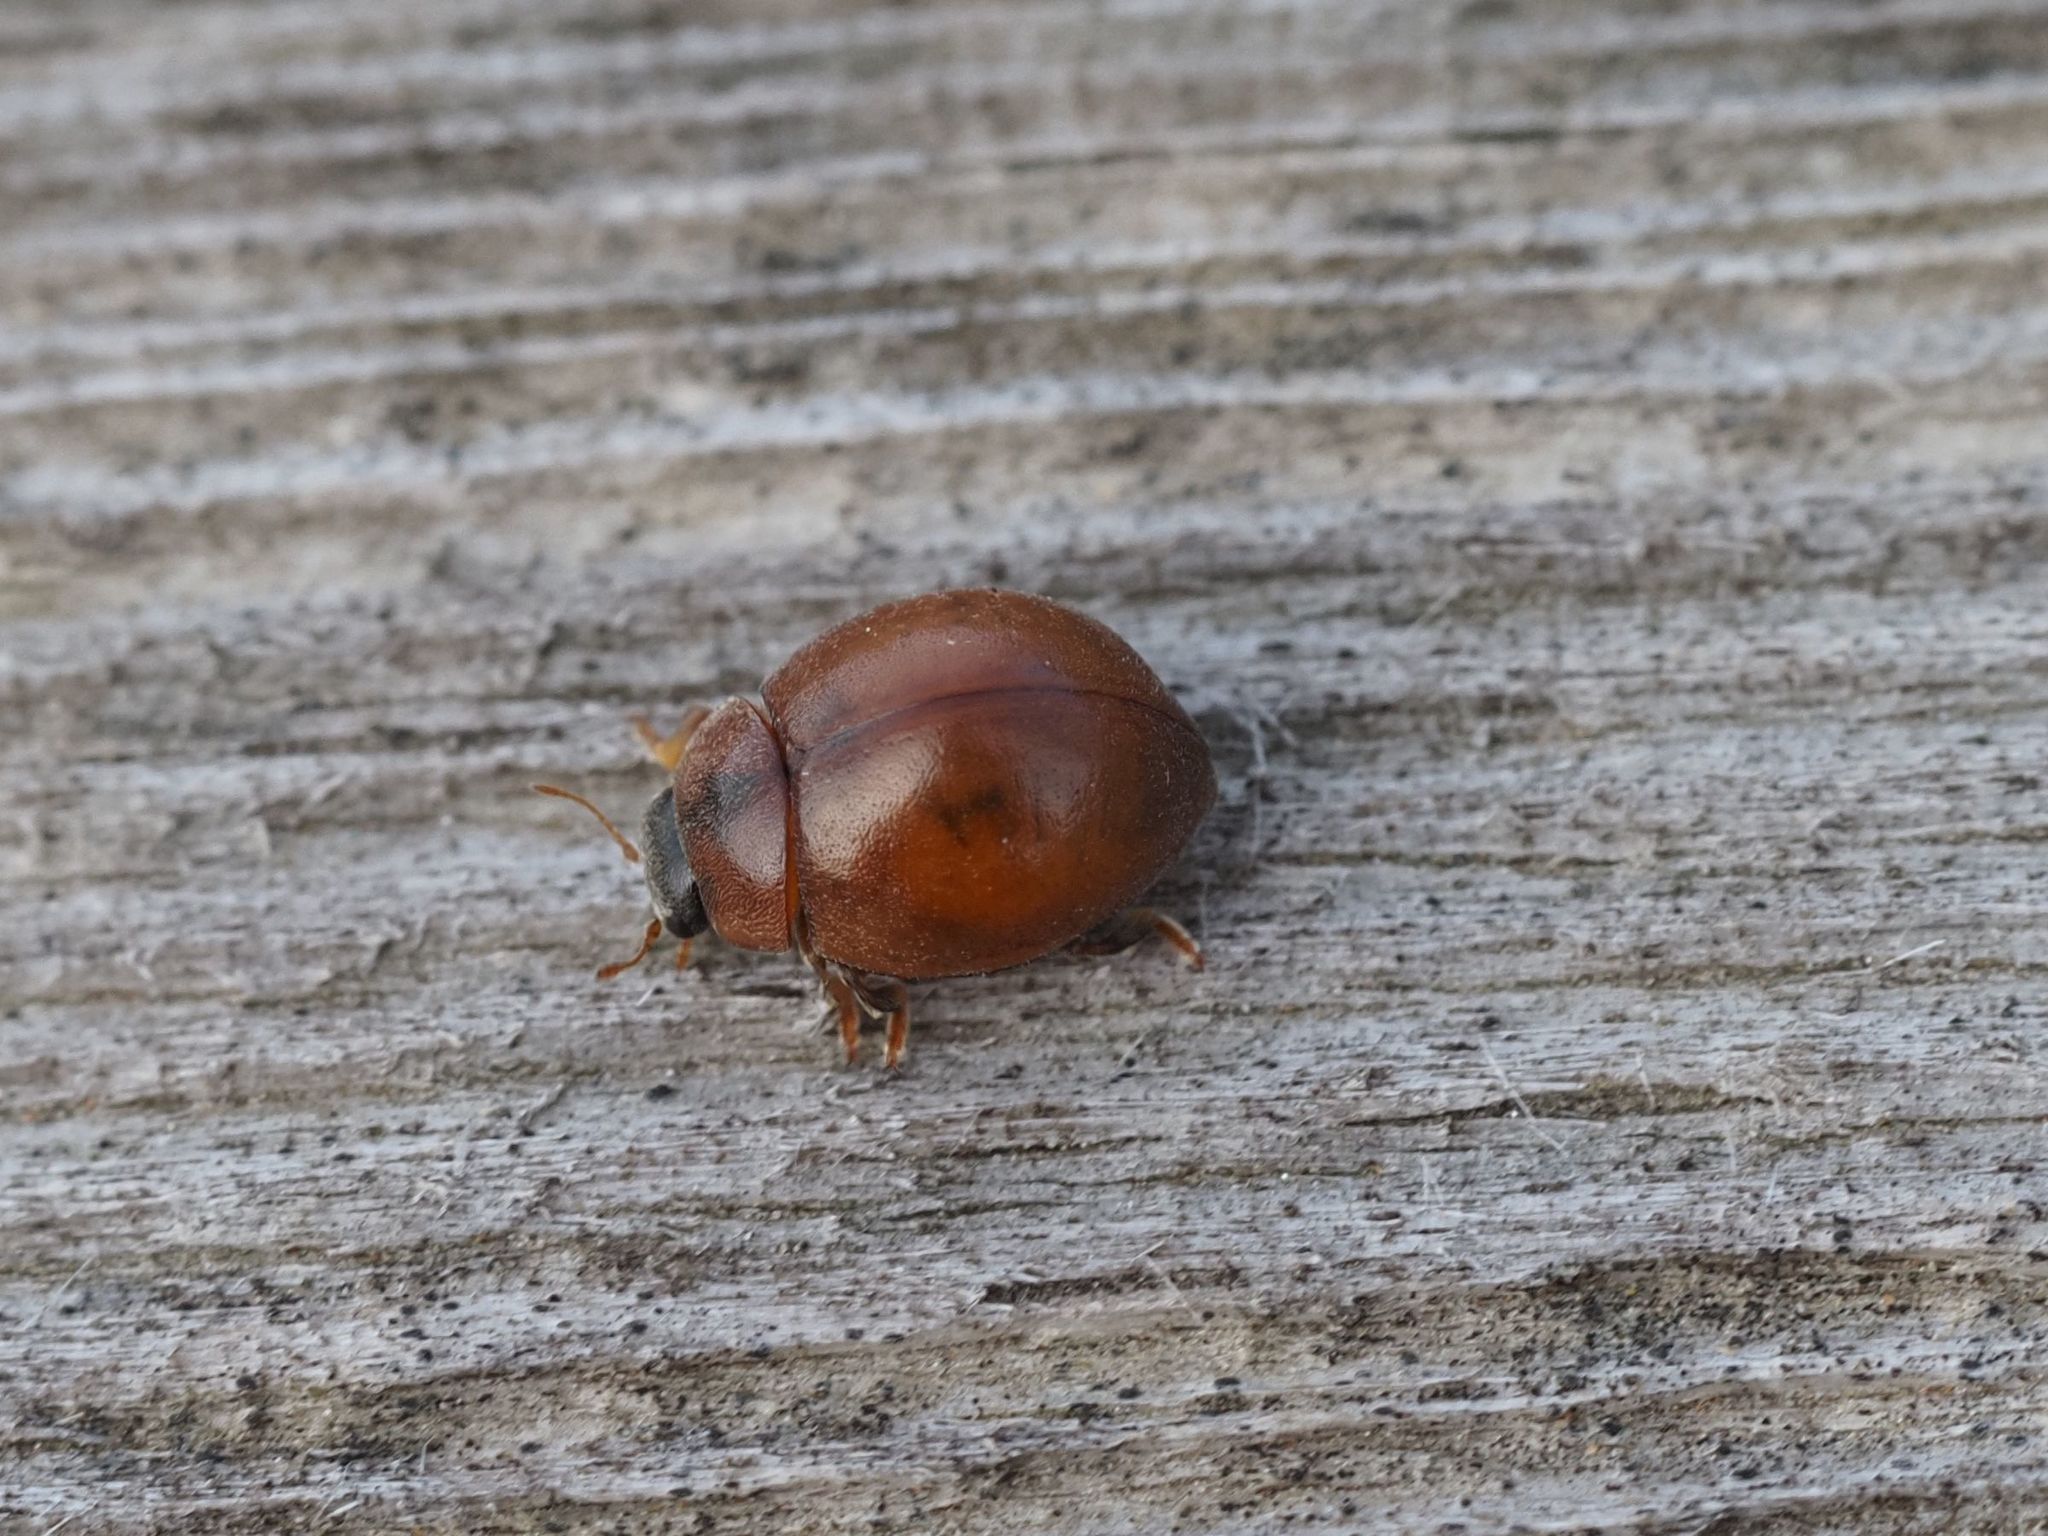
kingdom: Animalia
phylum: Arthropoda
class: Insecta
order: Coleoptera
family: Coccinellidae
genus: Cynegetis
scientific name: Cynegetis impunctata
